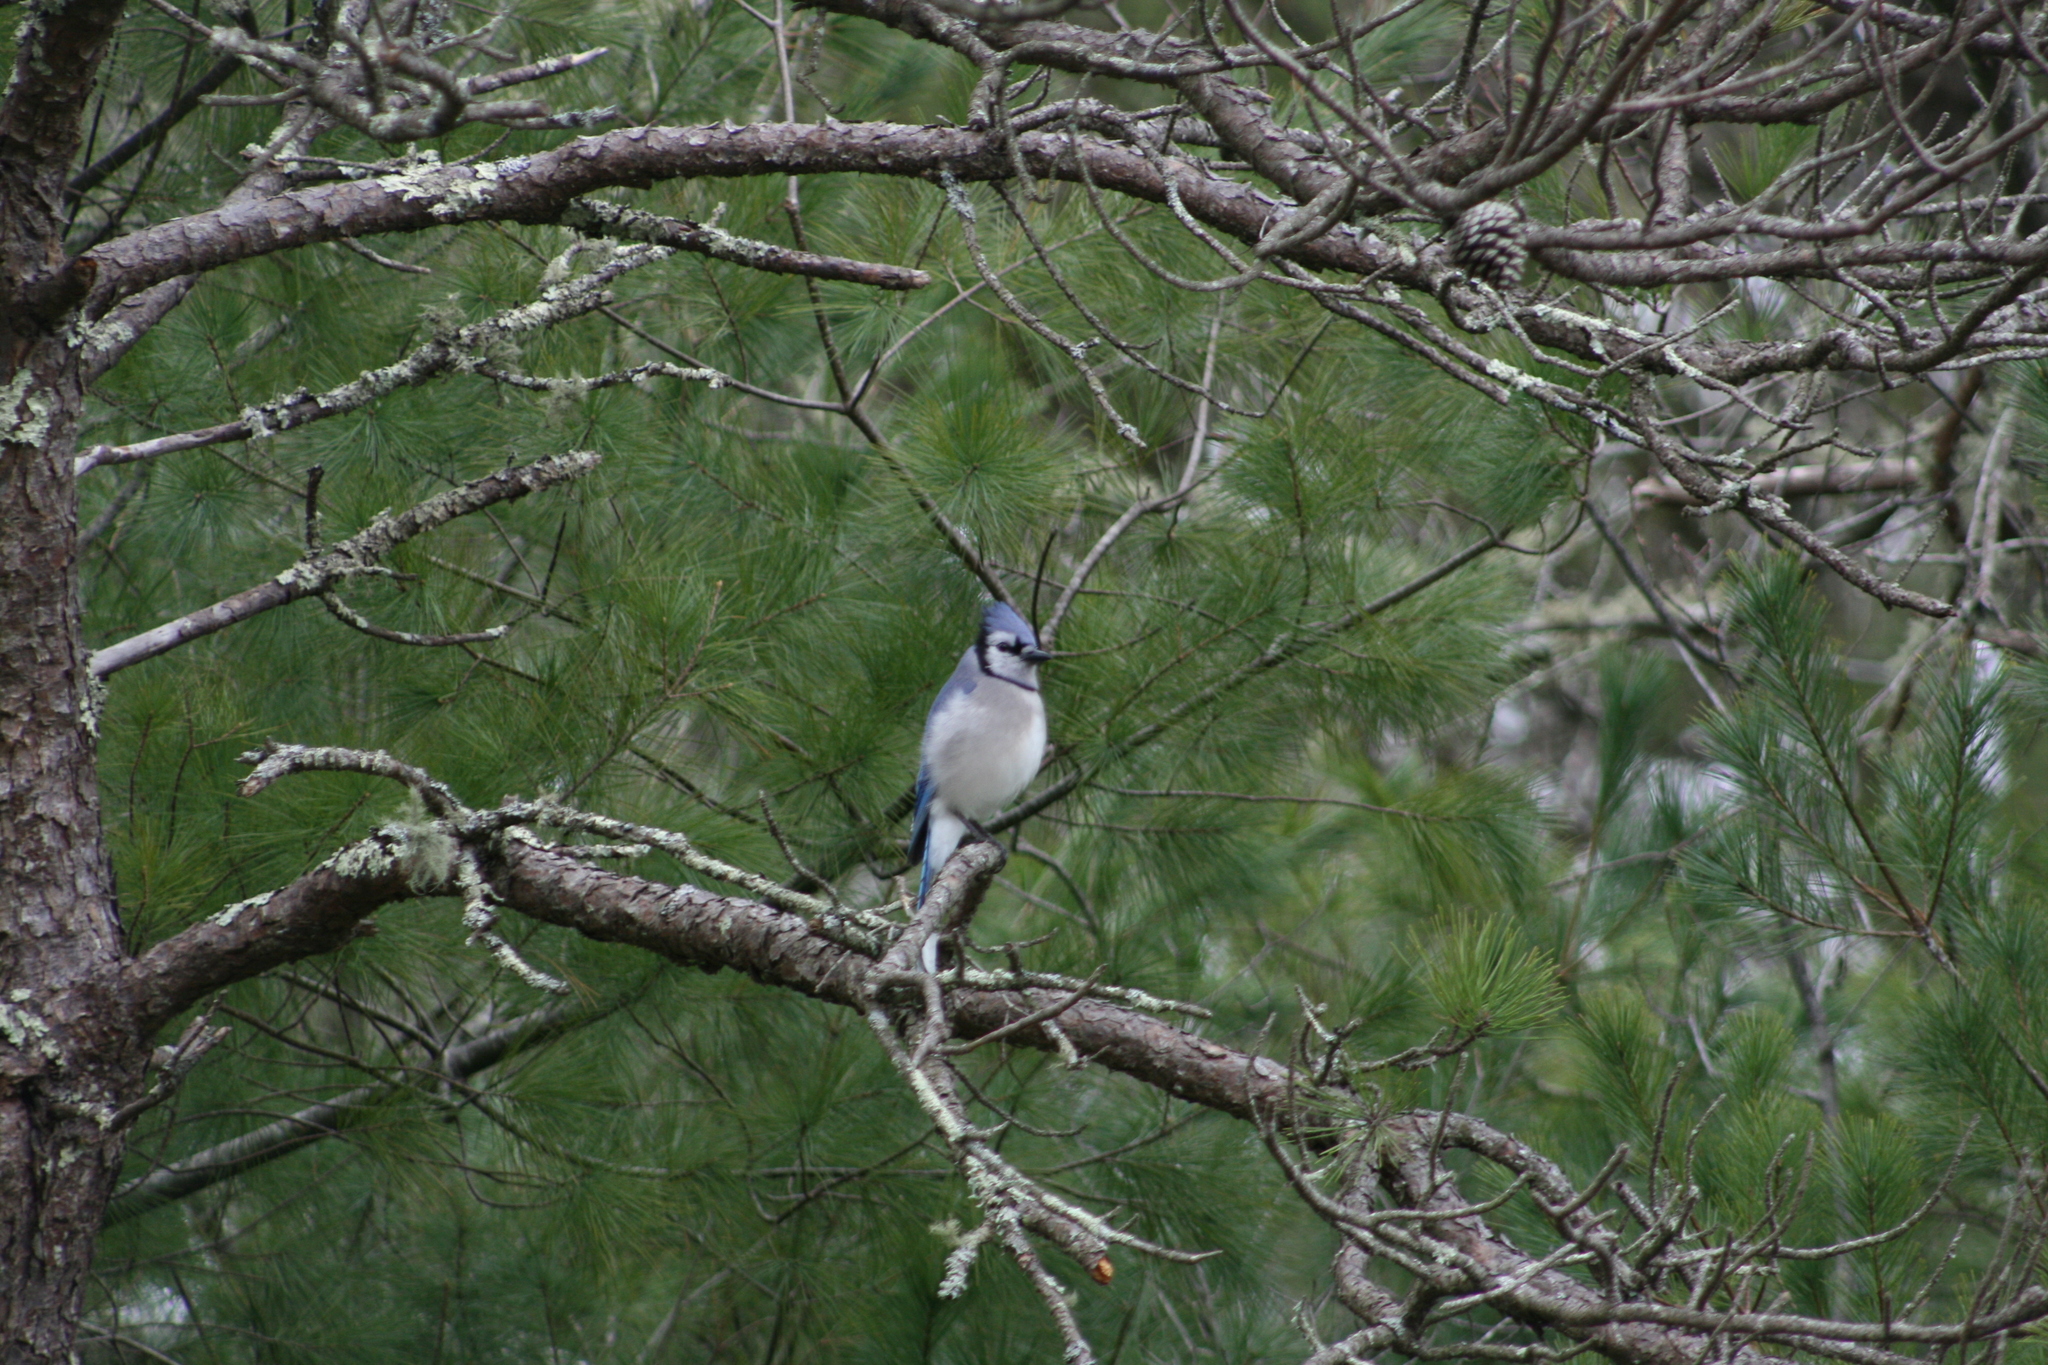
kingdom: Animalia
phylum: Chordata
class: Aves
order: Passeriformes
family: Corvidae
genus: Cyanocitta
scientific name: Cyanocitta cristata
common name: Blue jay
